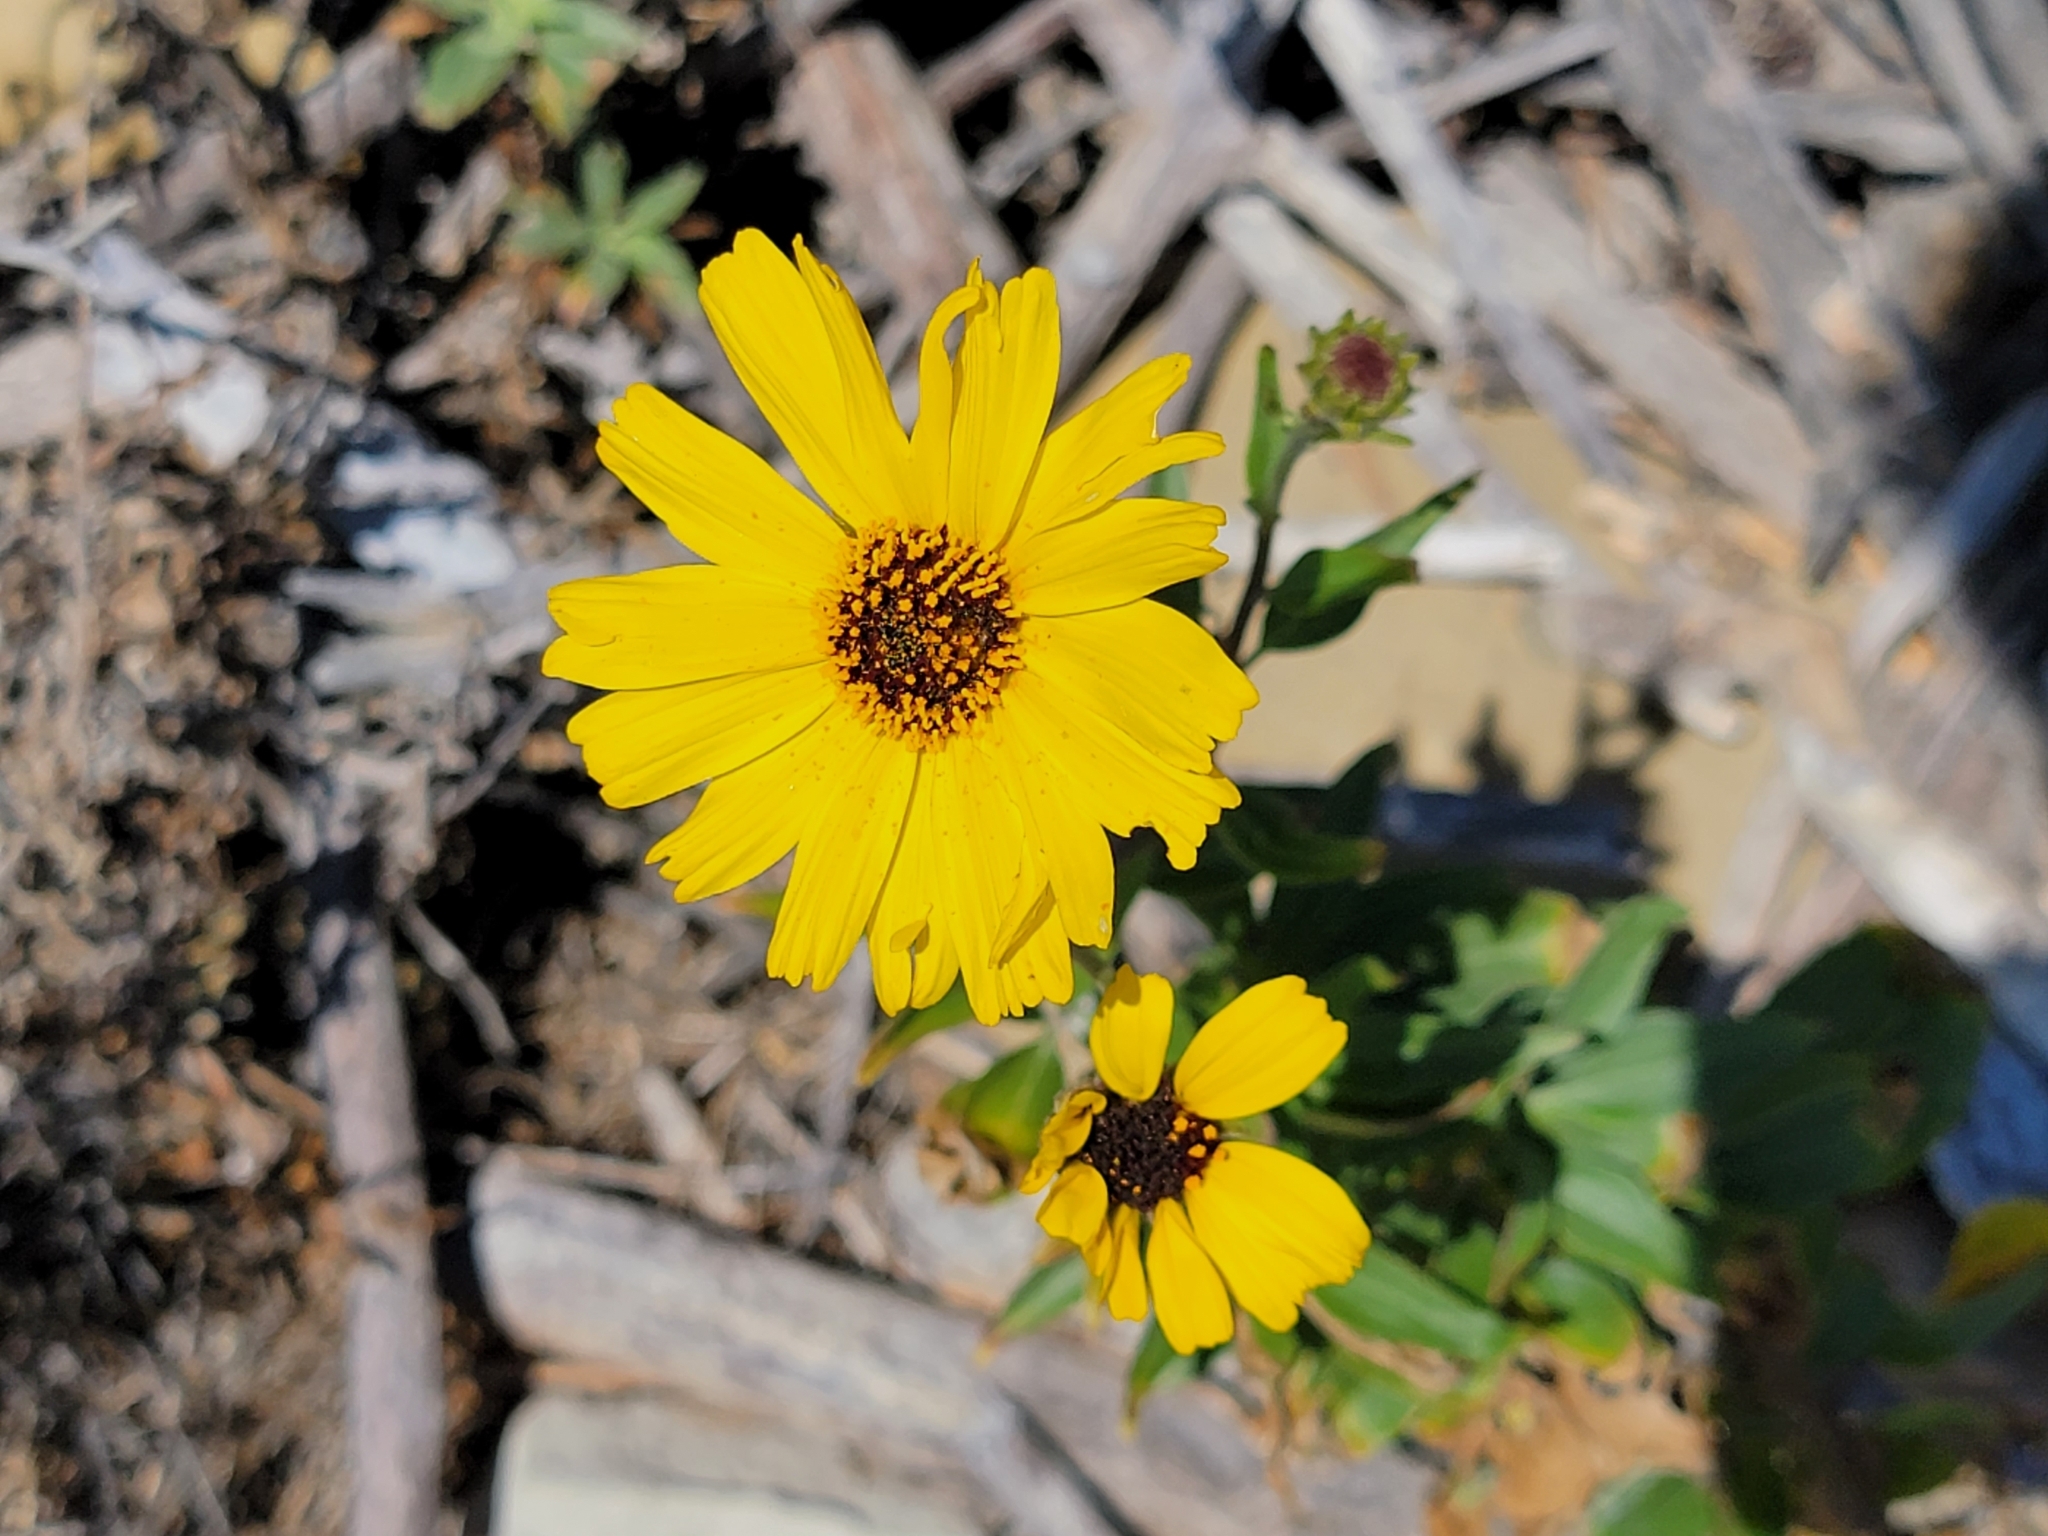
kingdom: Plantae
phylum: Tracheophyta
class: Magnoliopsida
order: Asterales
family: Asteraceae
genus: Encelia
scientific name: Encelia californica
